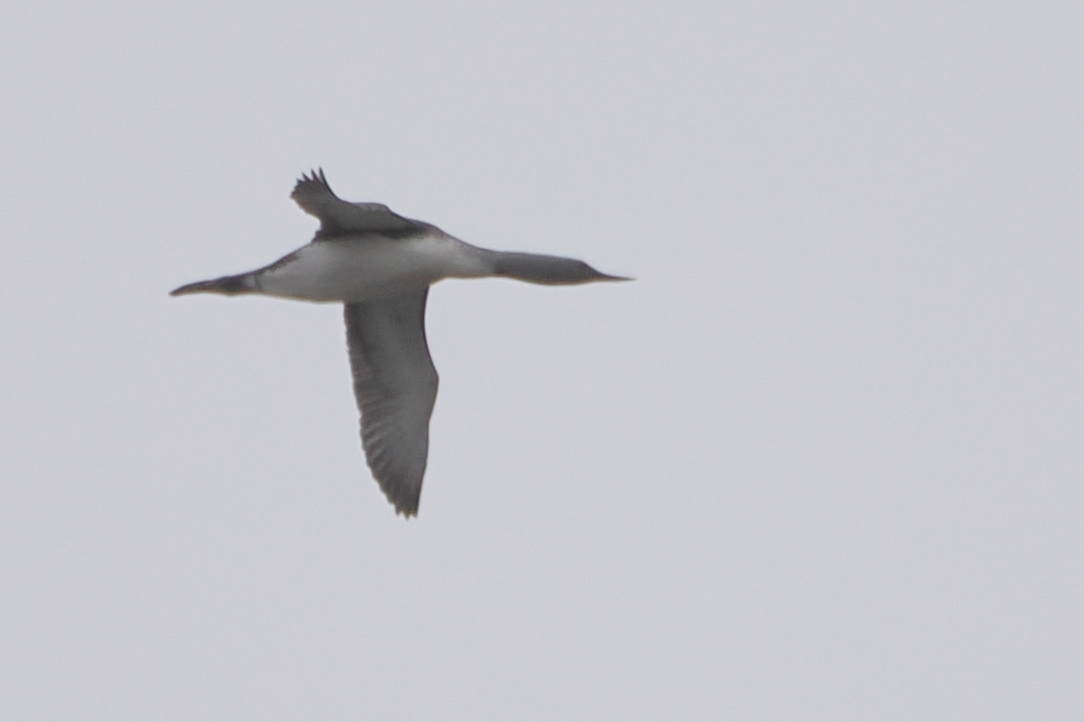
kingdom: Animalia
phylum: Chordata
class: Aves
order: Gaviiformes
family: Gaviidae
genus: Gavia
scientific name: Gavia stellata
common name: Red-throated loon
